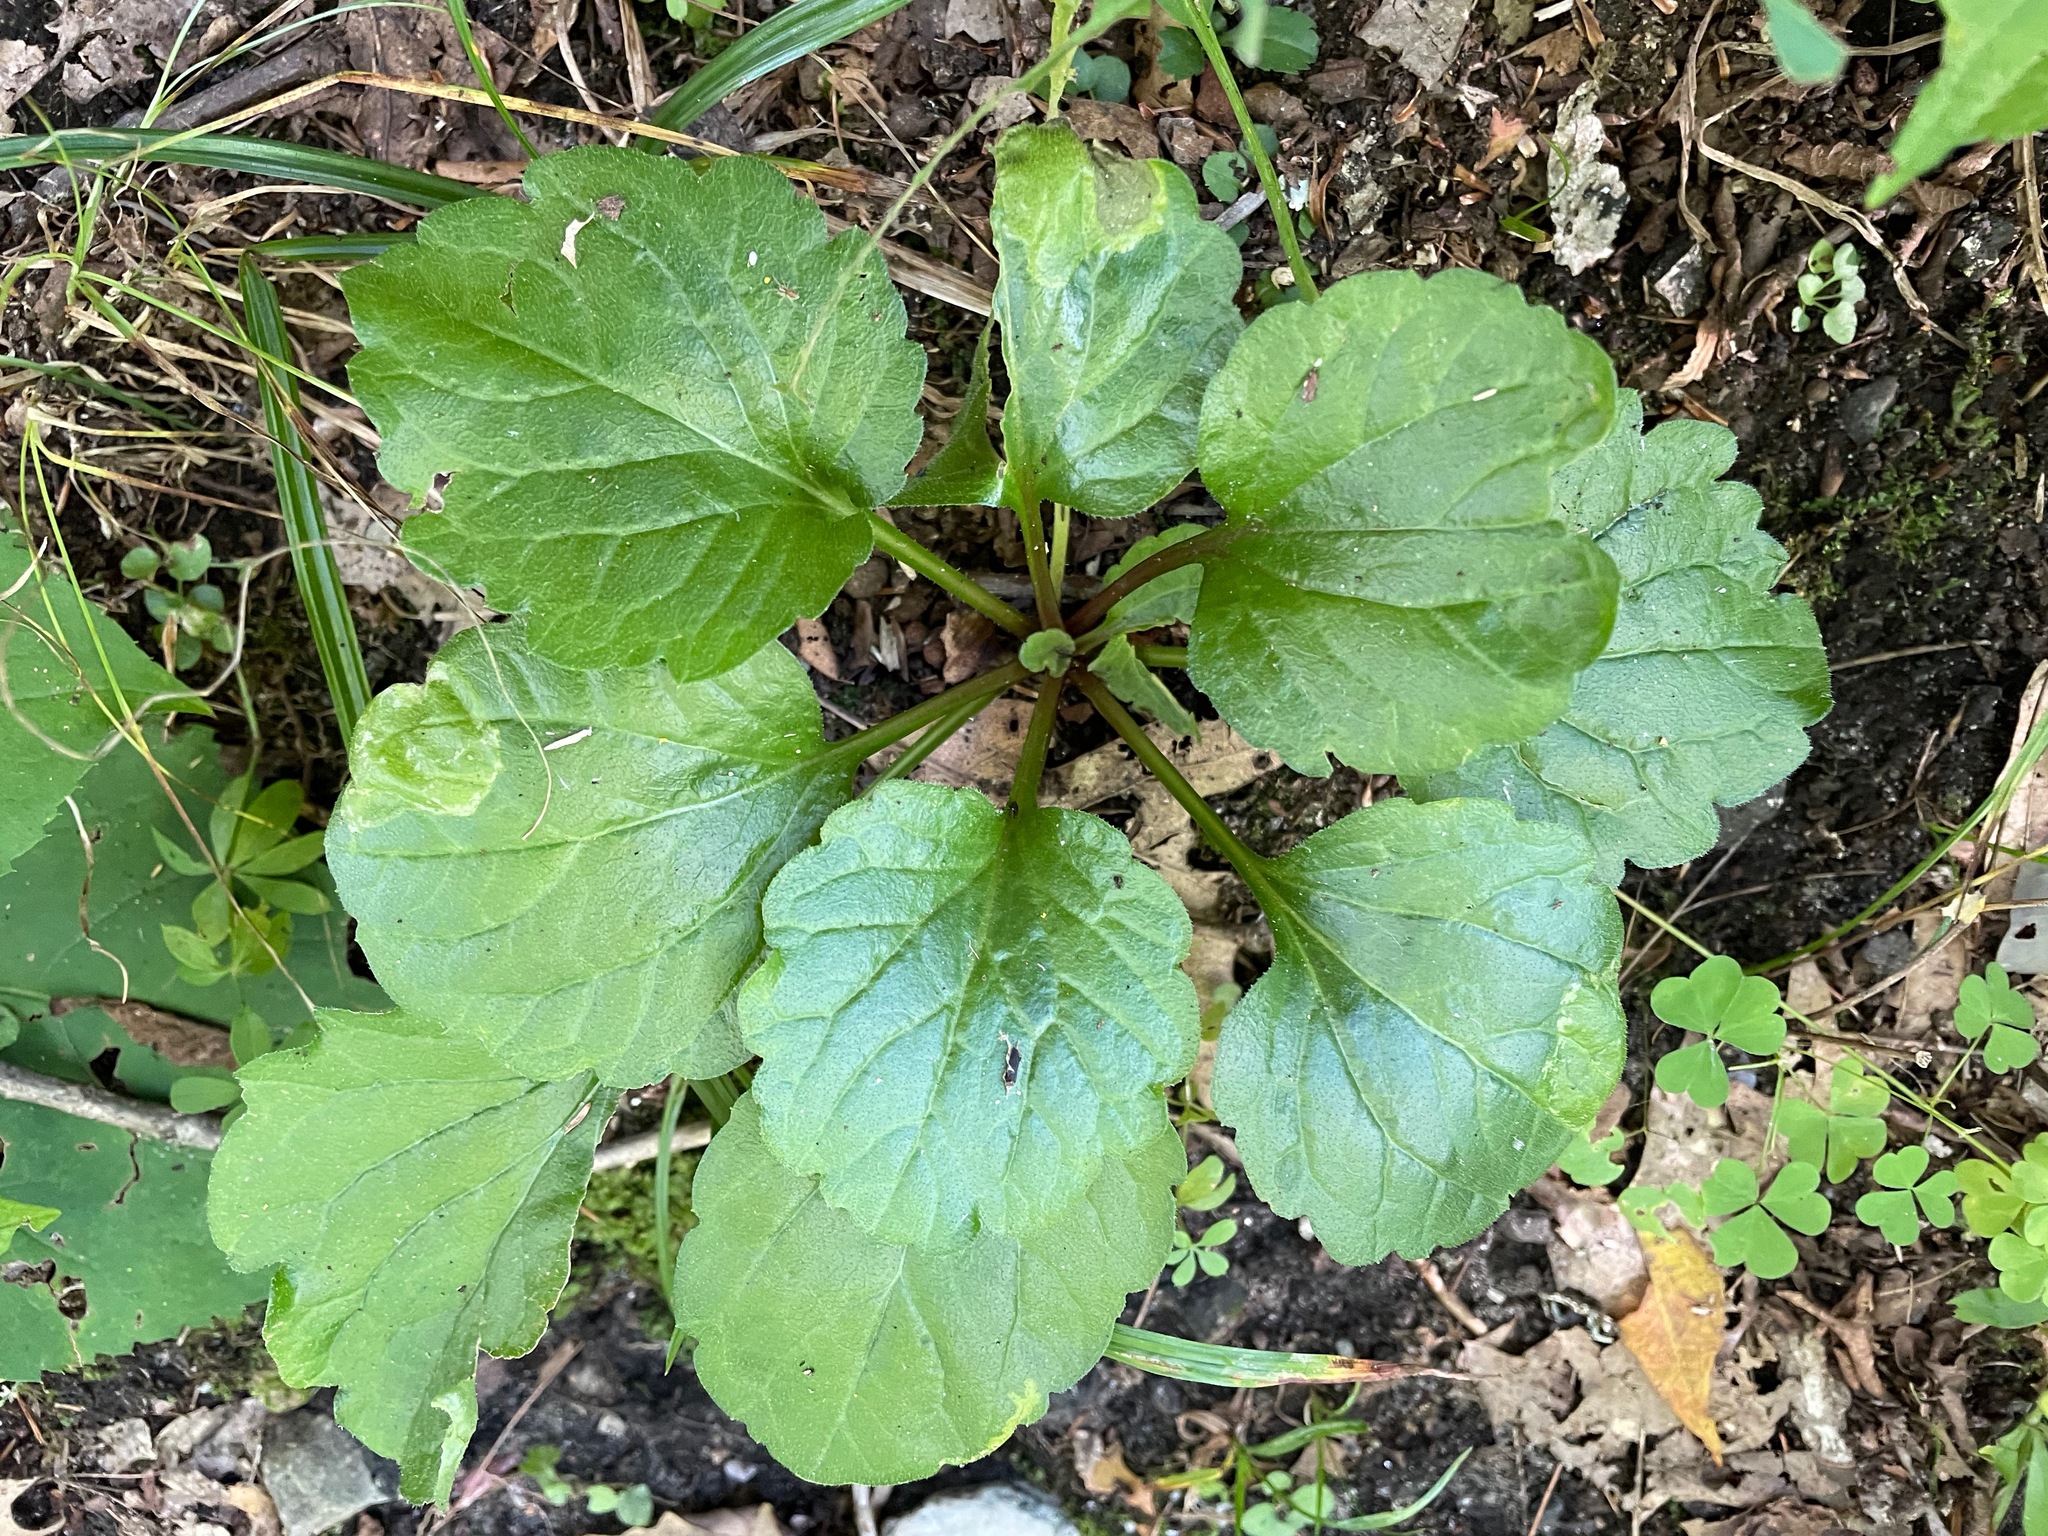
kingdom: Plantae
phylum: Tracheophyta
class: Magnoliopsida
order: Asterales
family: Asteraceae
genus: Erigeron
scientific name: Erigeron annuus
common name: Tall fleabane
